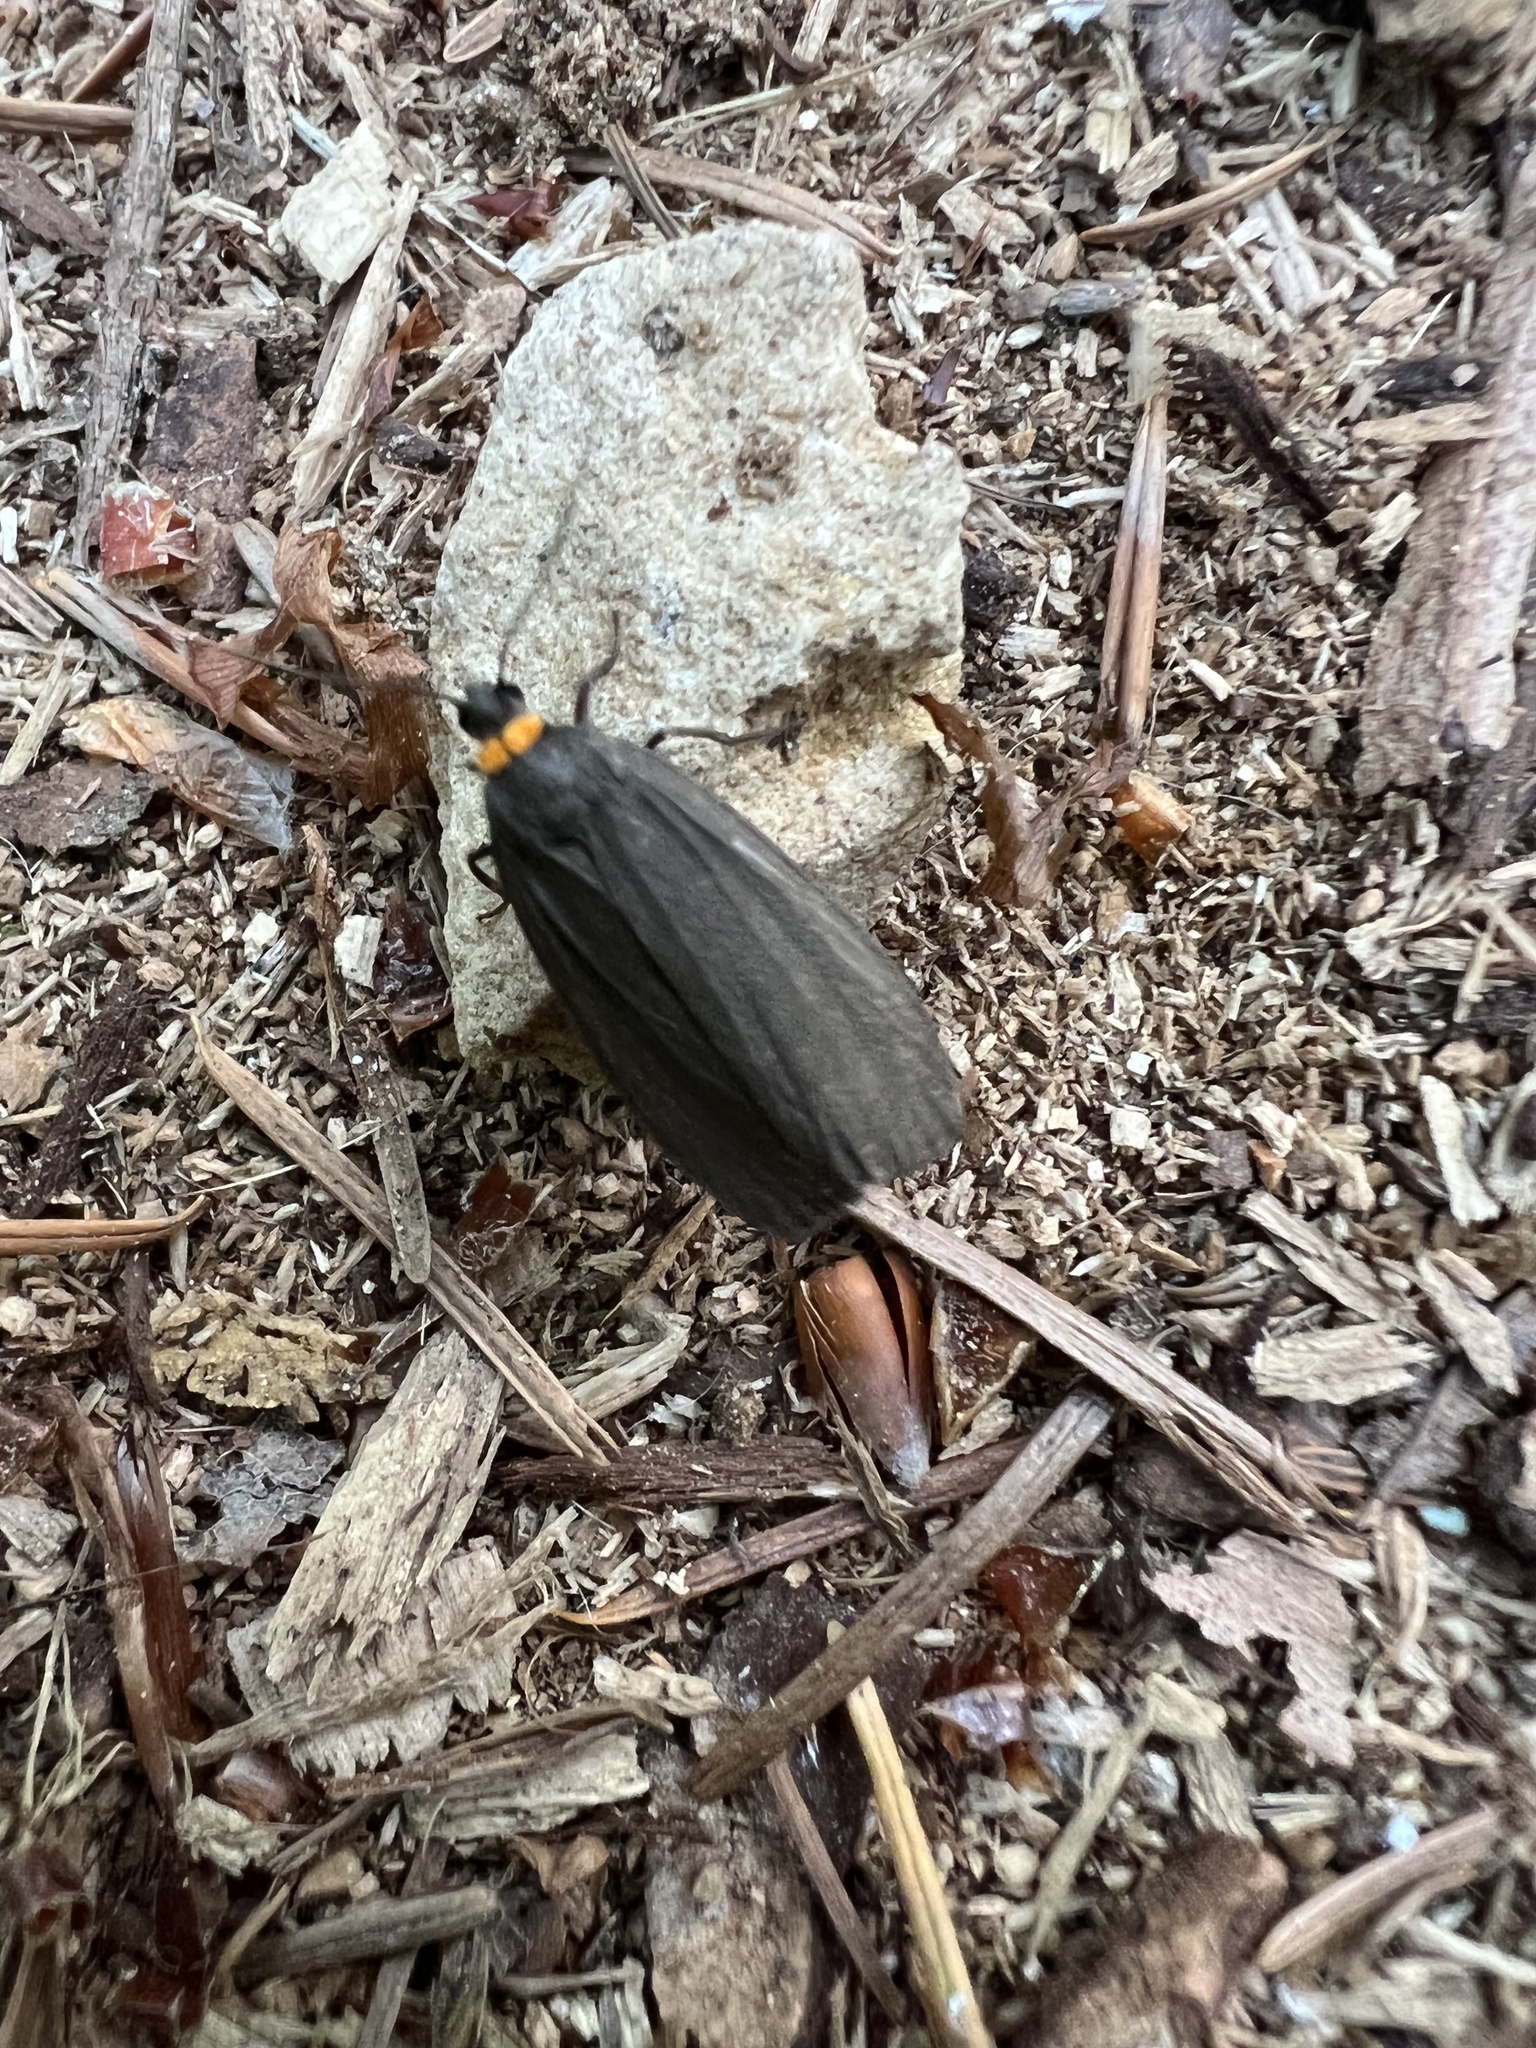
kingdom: Animalia
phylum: Arthropoda
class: Insecta
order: Lepidoptera
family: Erebidae
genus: Atolmis
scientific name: Atolmis rubricollis
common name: Red-necked footman
